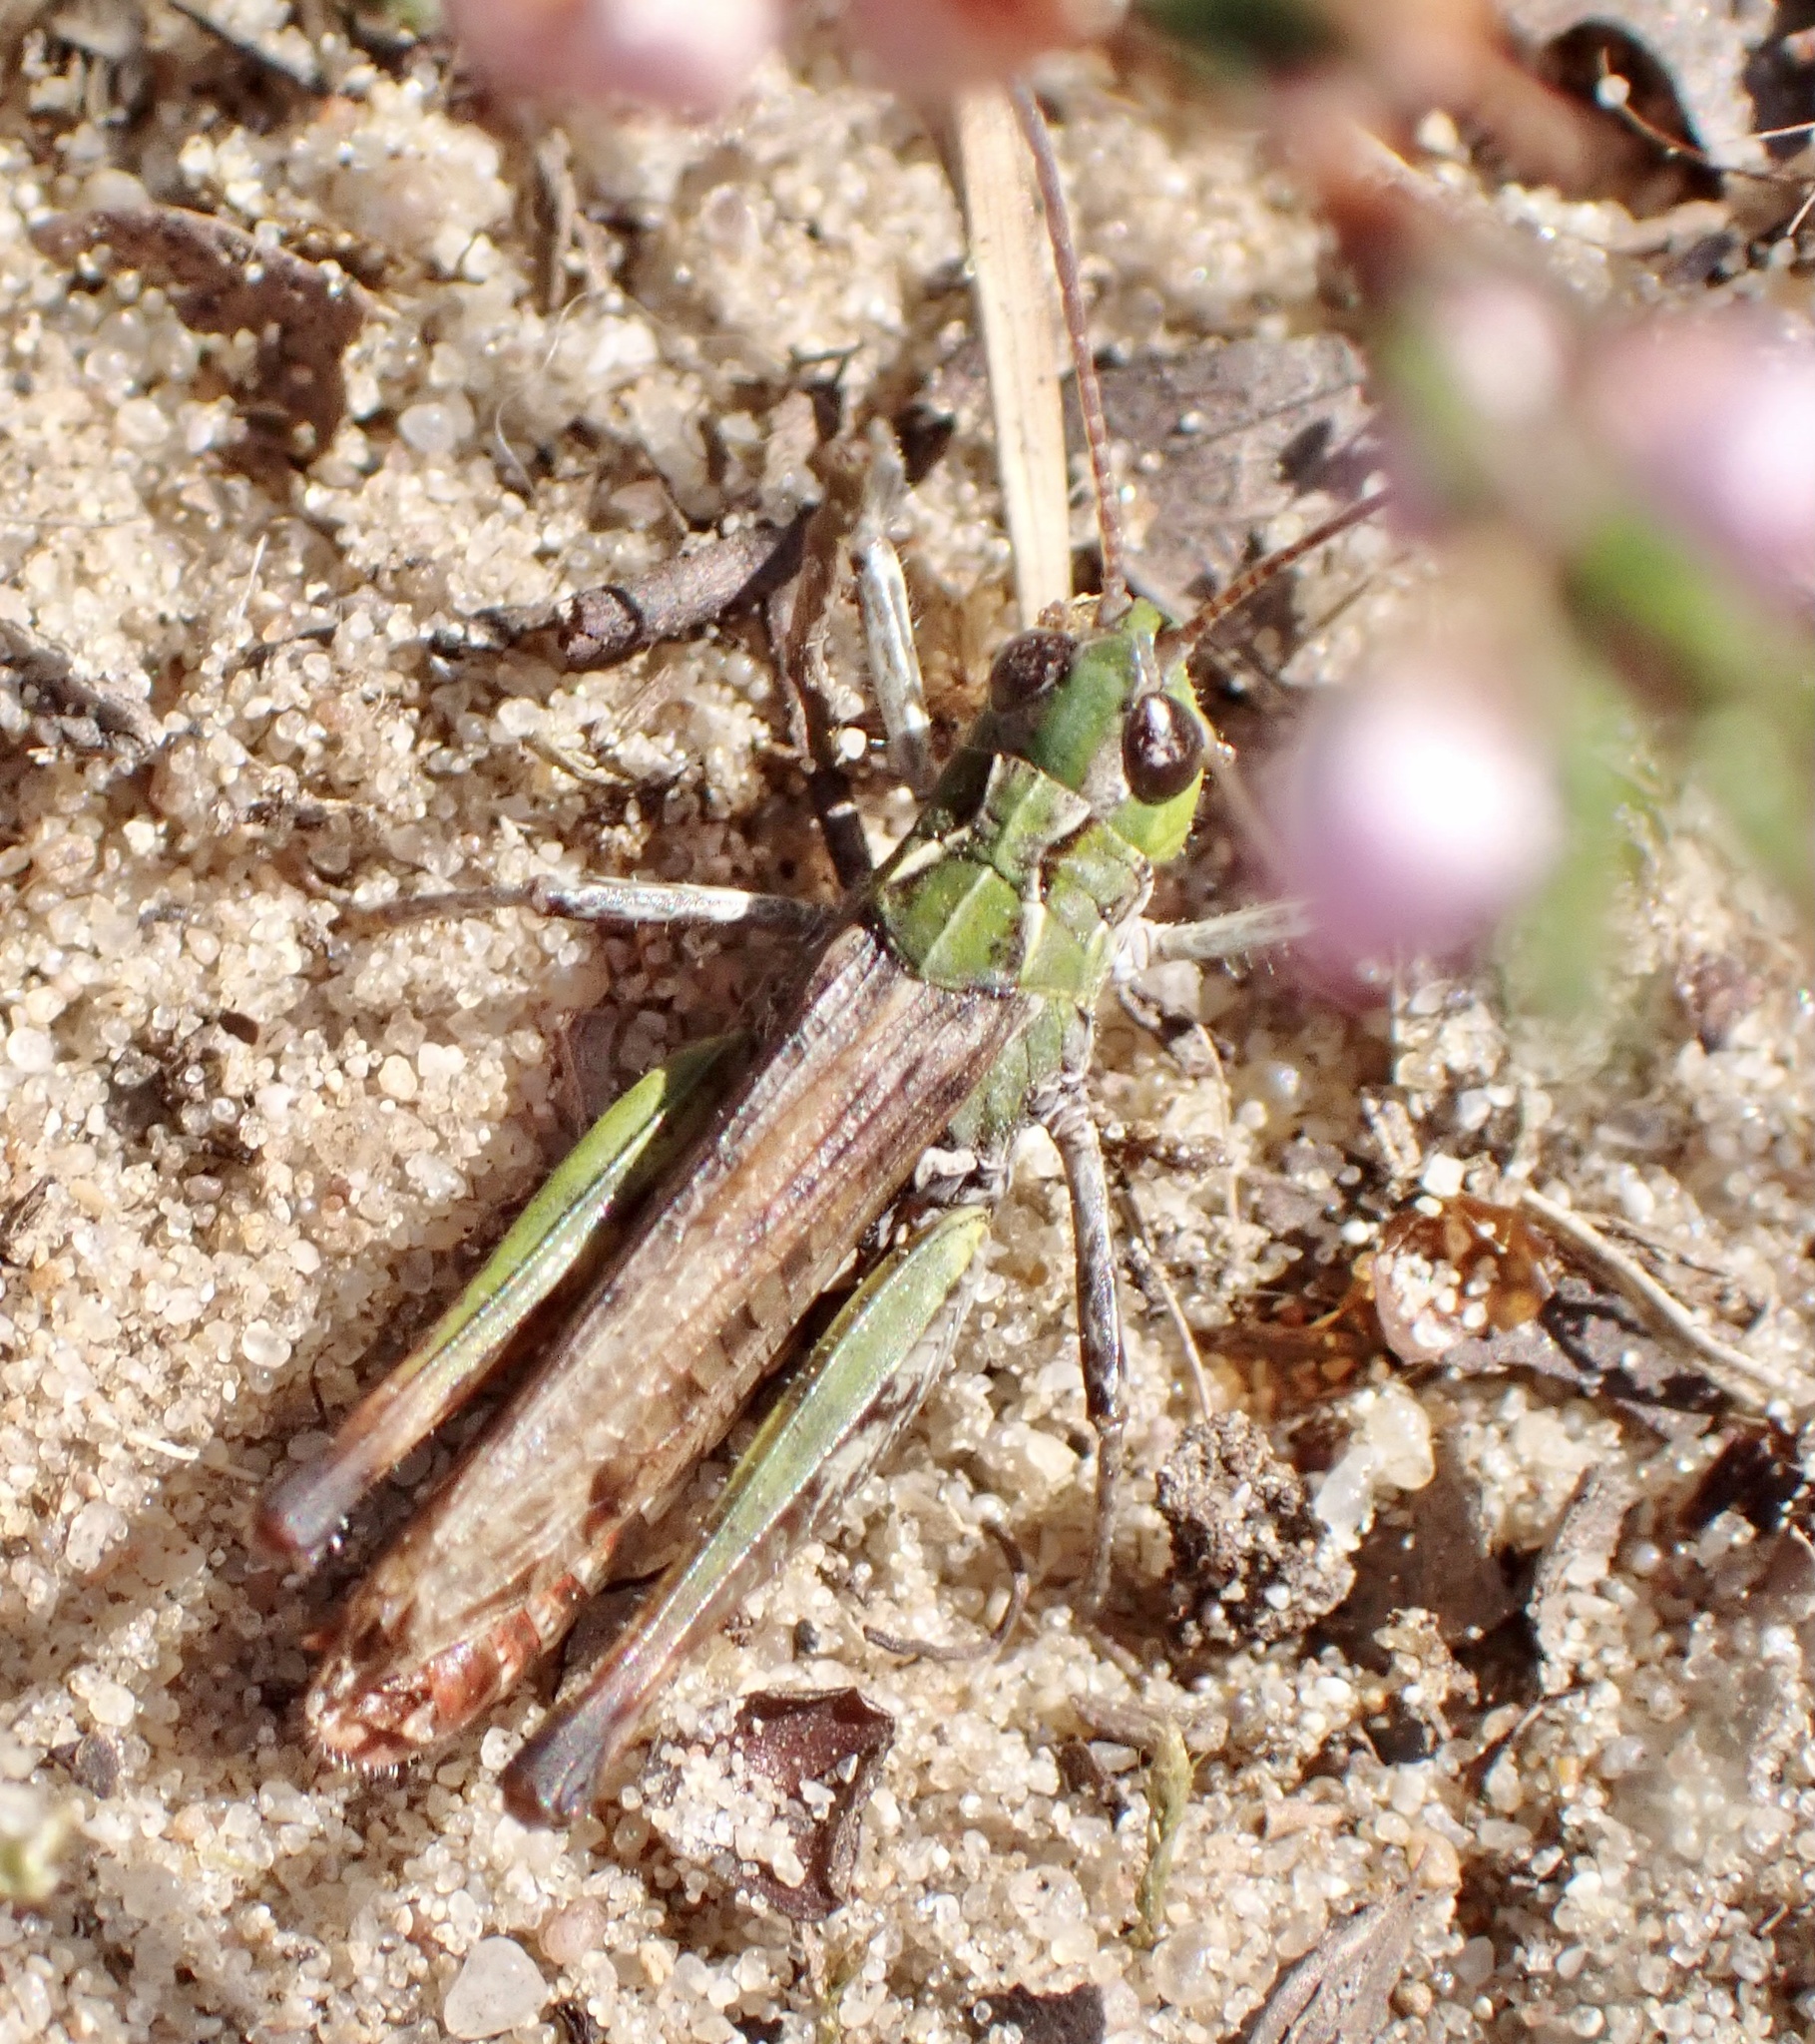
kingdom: Animalia
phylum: Arthropoda
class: Insecta
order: Orthoptera
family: Acrididae
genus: Myrmeleotettix
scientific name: Myrmeleotettix maculatus
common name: Mottled grasshopper
